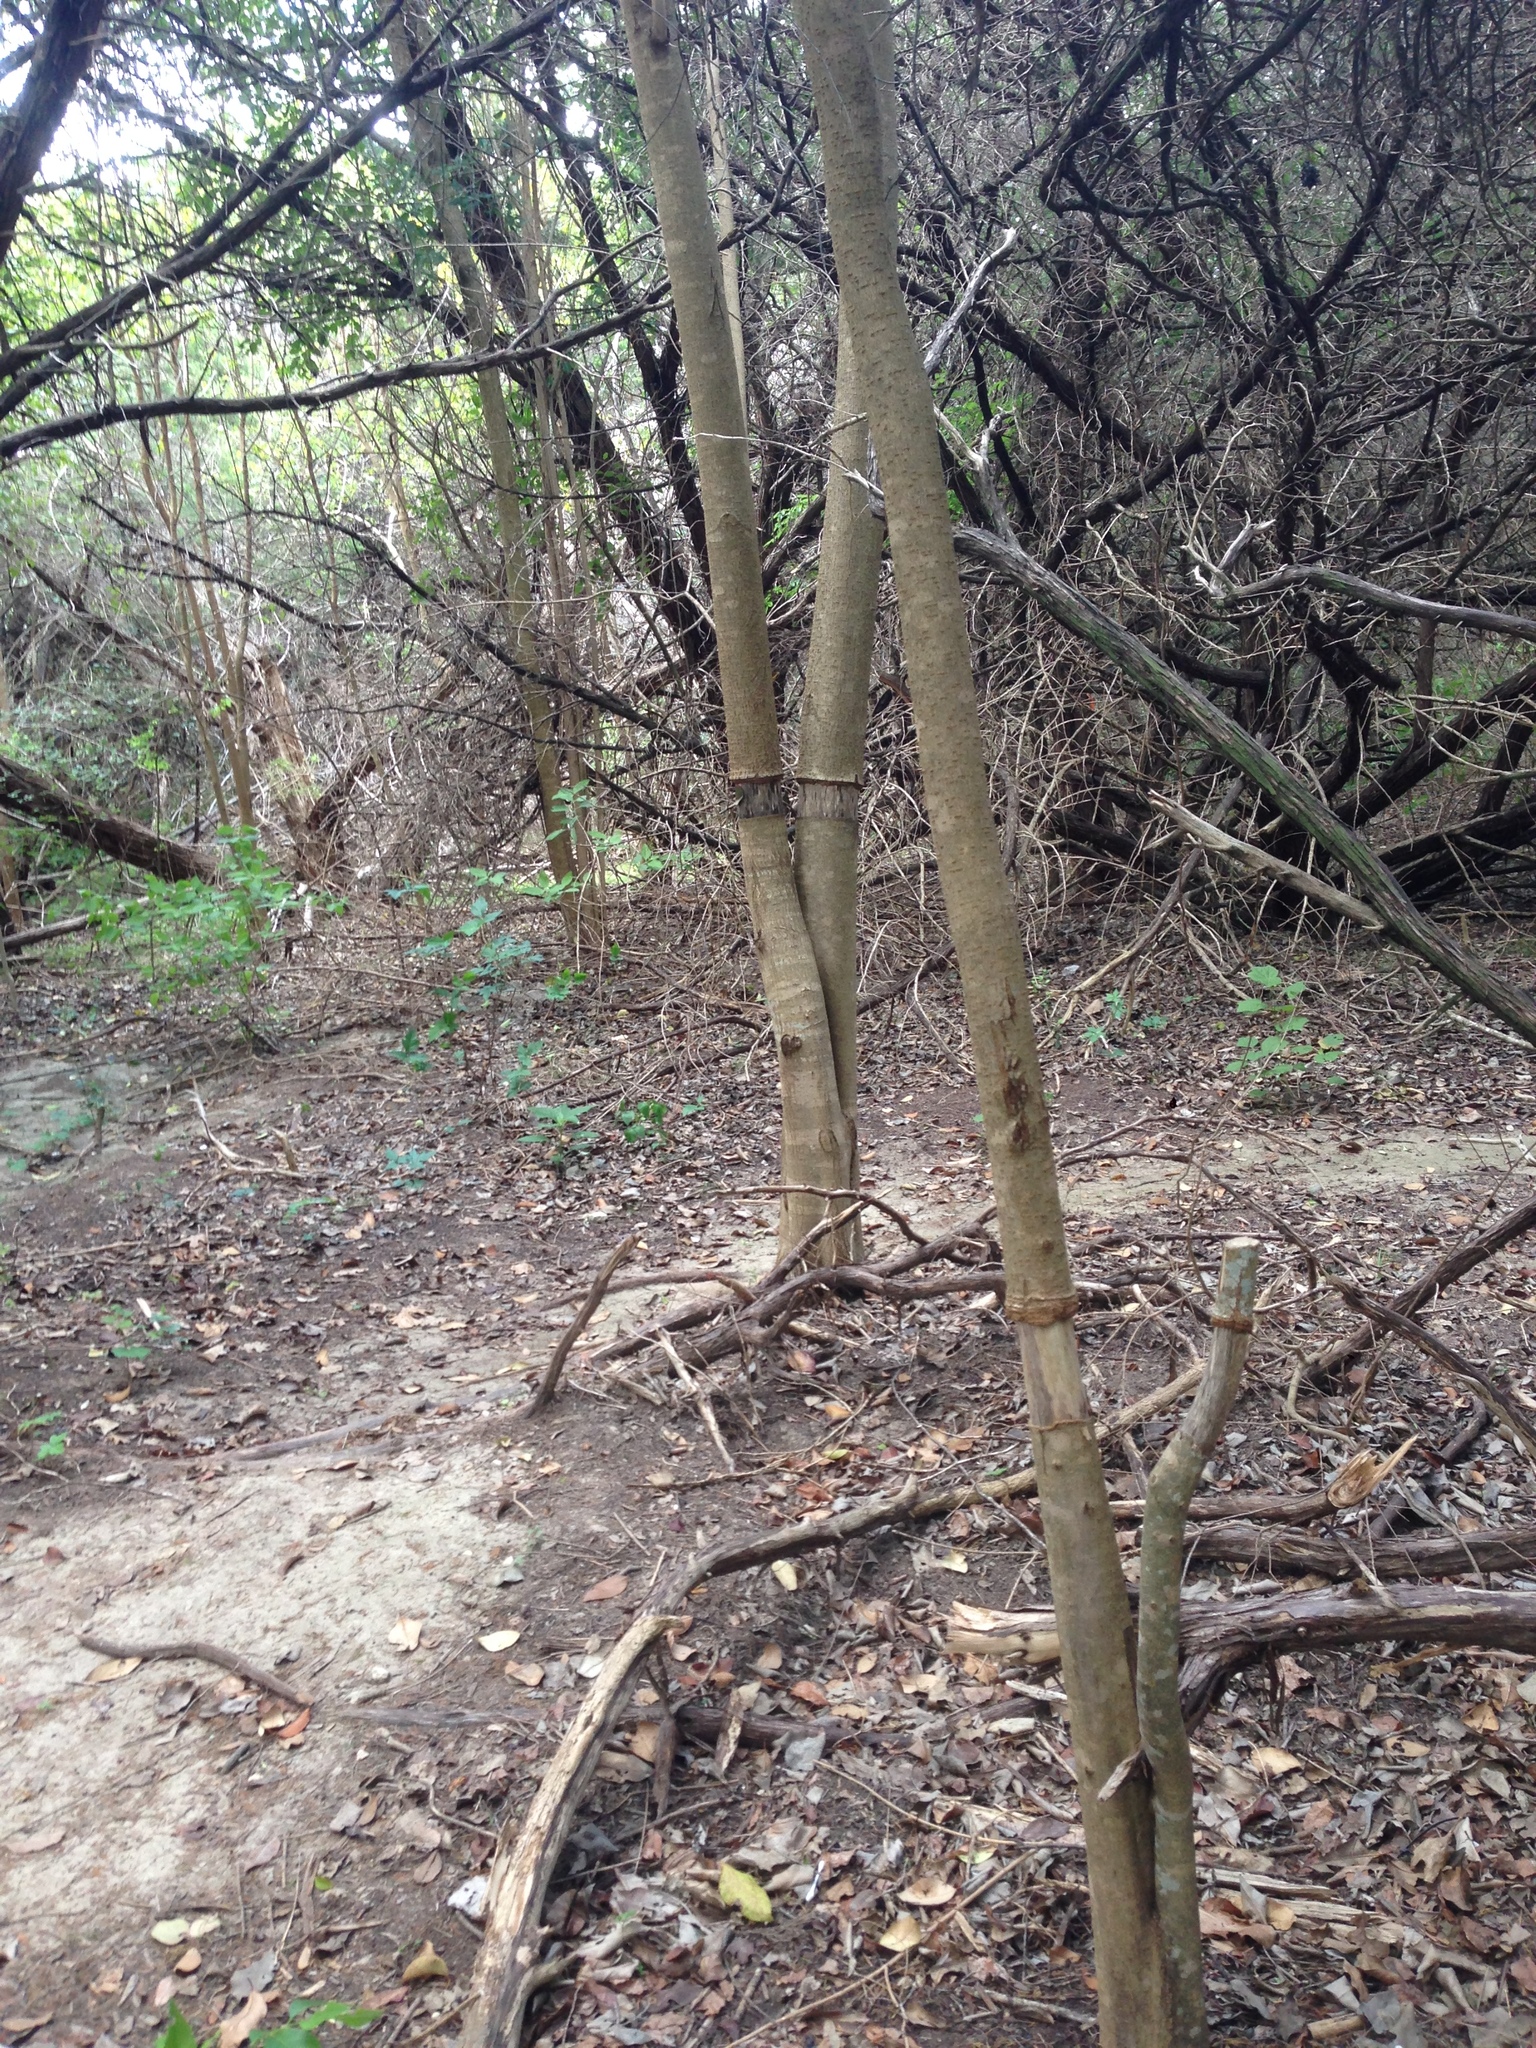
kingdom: Plantae
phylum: Tracheophyta
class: Magnoliopsida
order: Lamiales
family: Oleaceae
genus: Ligustrum
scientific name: Ligustrum lucidum
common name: Glossy privet
